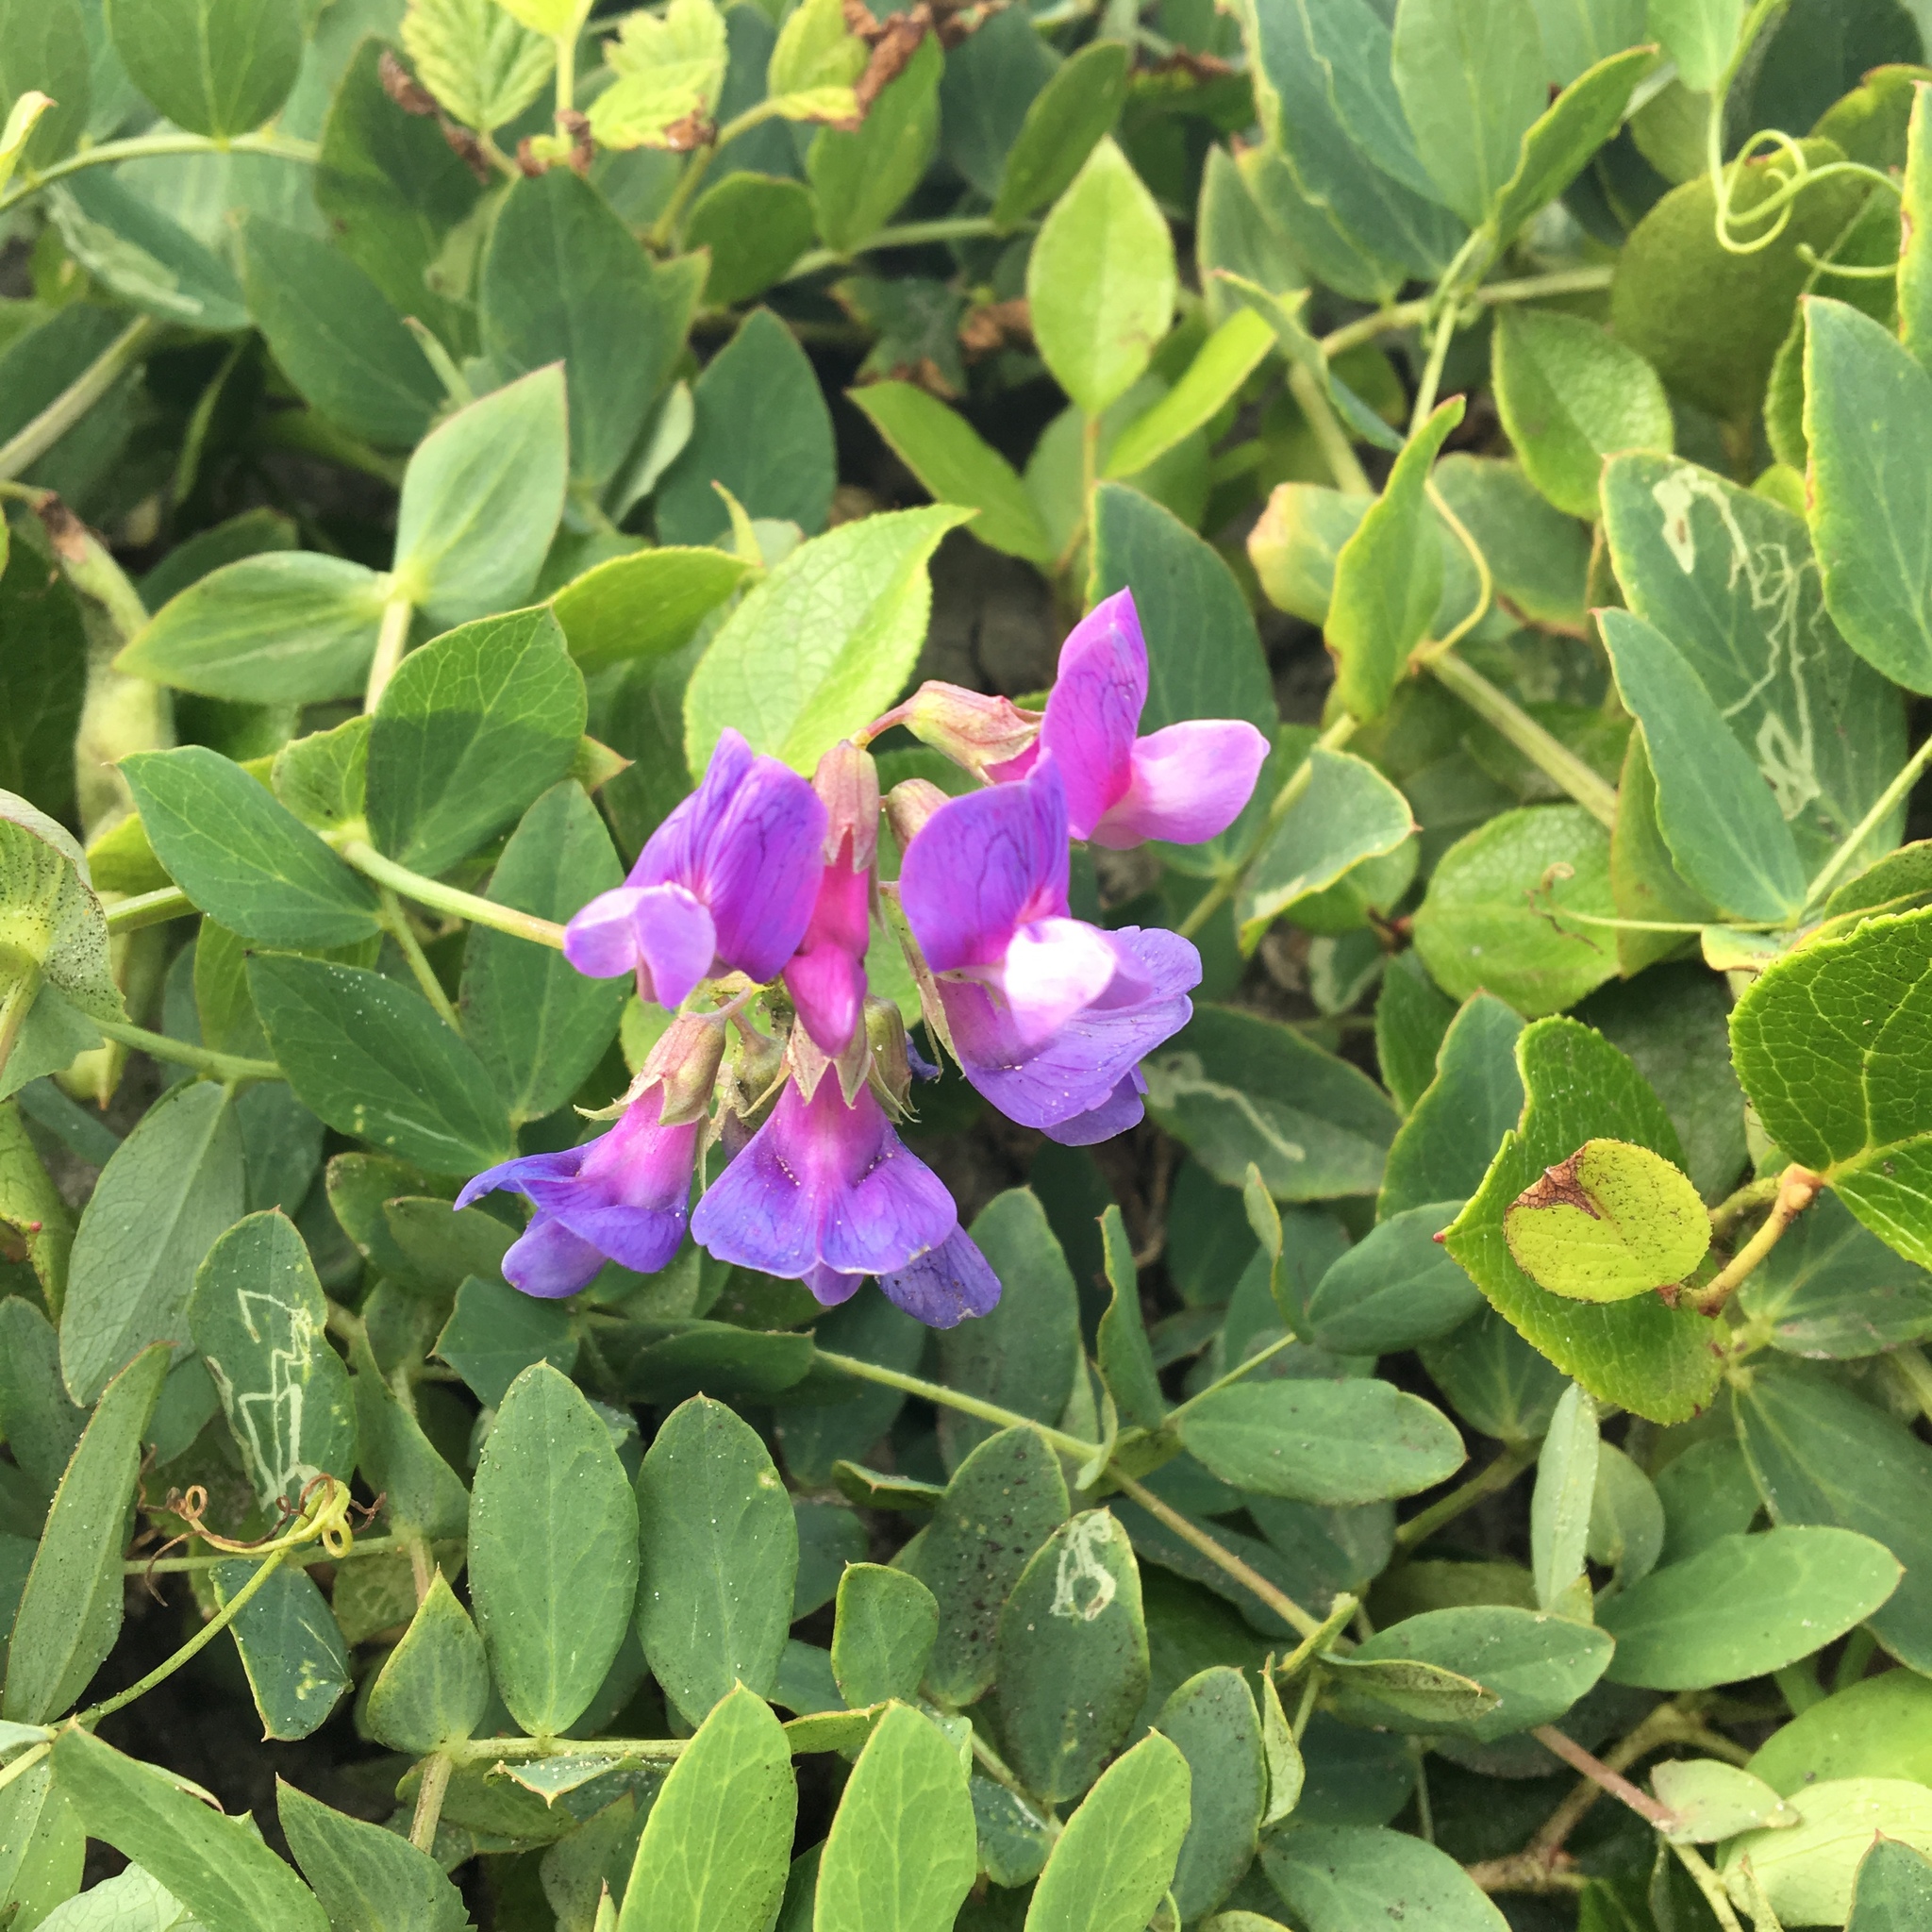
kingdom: Plantae
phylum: Tracheophyta
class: Magnoliopsida
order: Fabales
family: Fabaceae
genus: Lathyrus
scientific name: Lathyrus japonicus
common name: Sea pea
